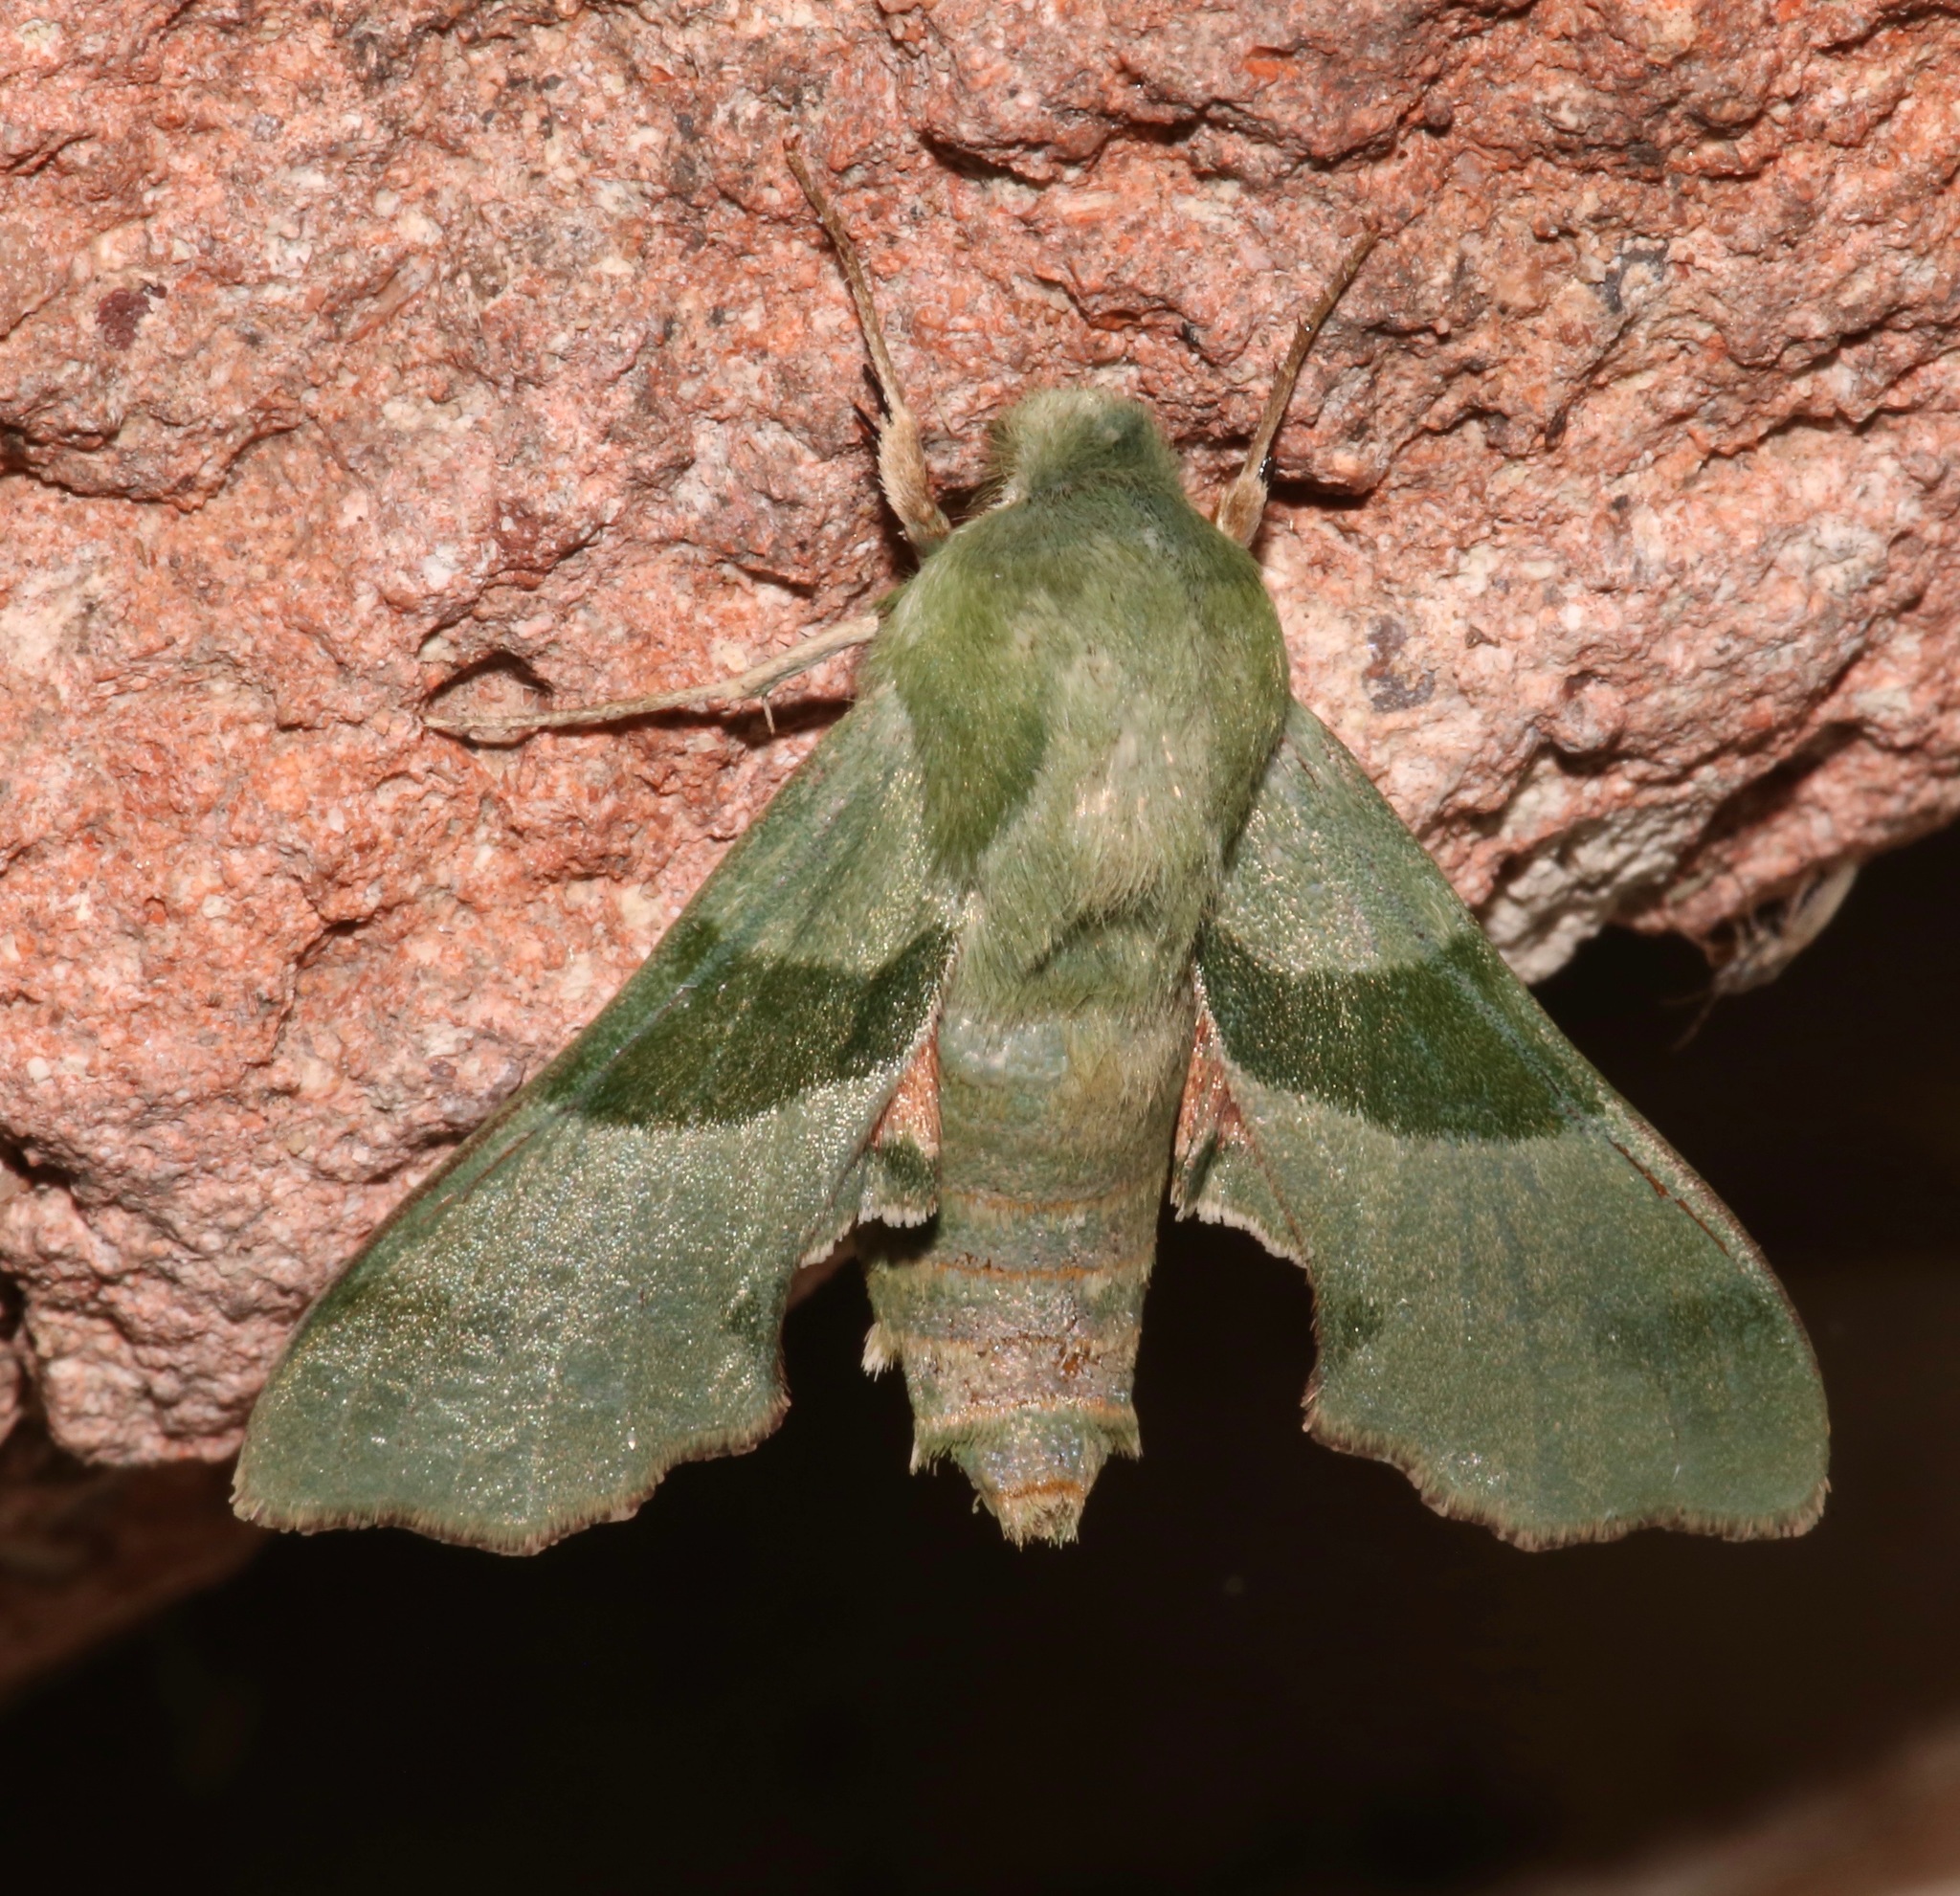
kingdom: Animalia
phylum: Arthropoda
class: Insecta
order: Lepidoptera
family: Sphingidae
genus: Proserpinus
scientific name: Proserpinus terlooii
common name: Terloo's sphinx
